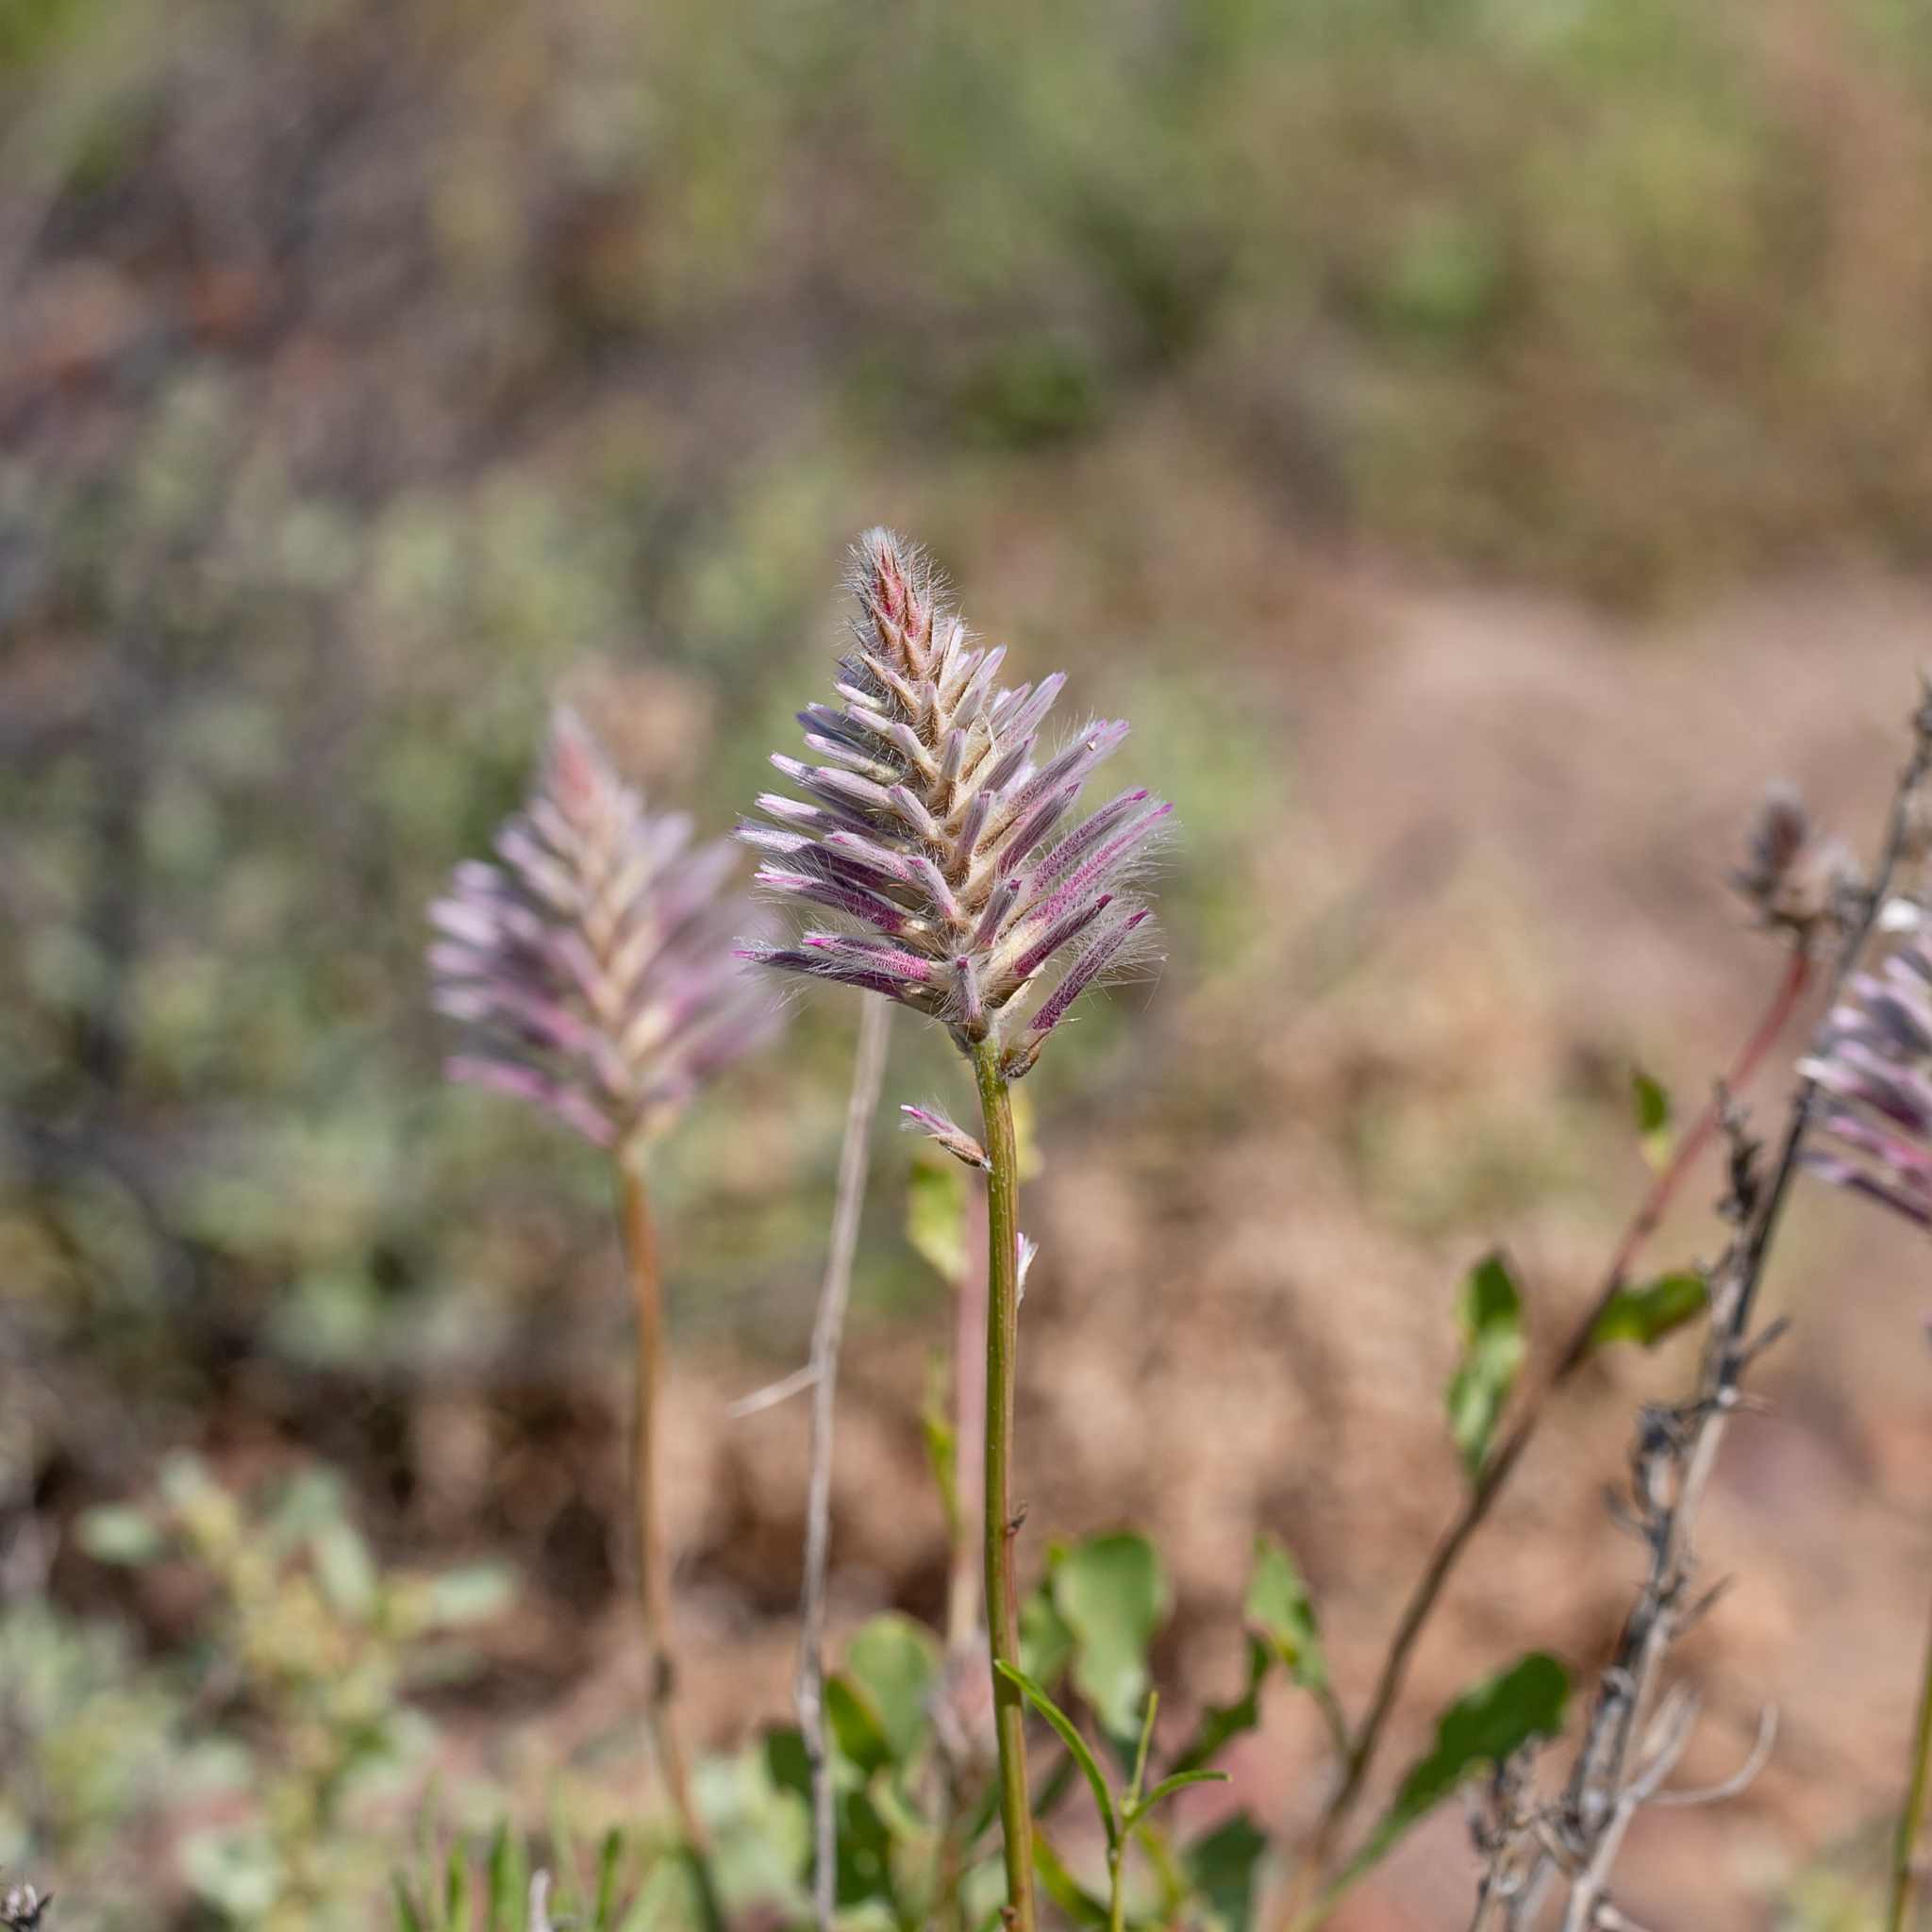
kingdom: Plantae
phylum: Tracheophyta
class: Magnoliopsida
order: Caryophyllales
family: Amaranthaceae
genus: Ptilotus
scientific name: Ptilotus exaltatus
